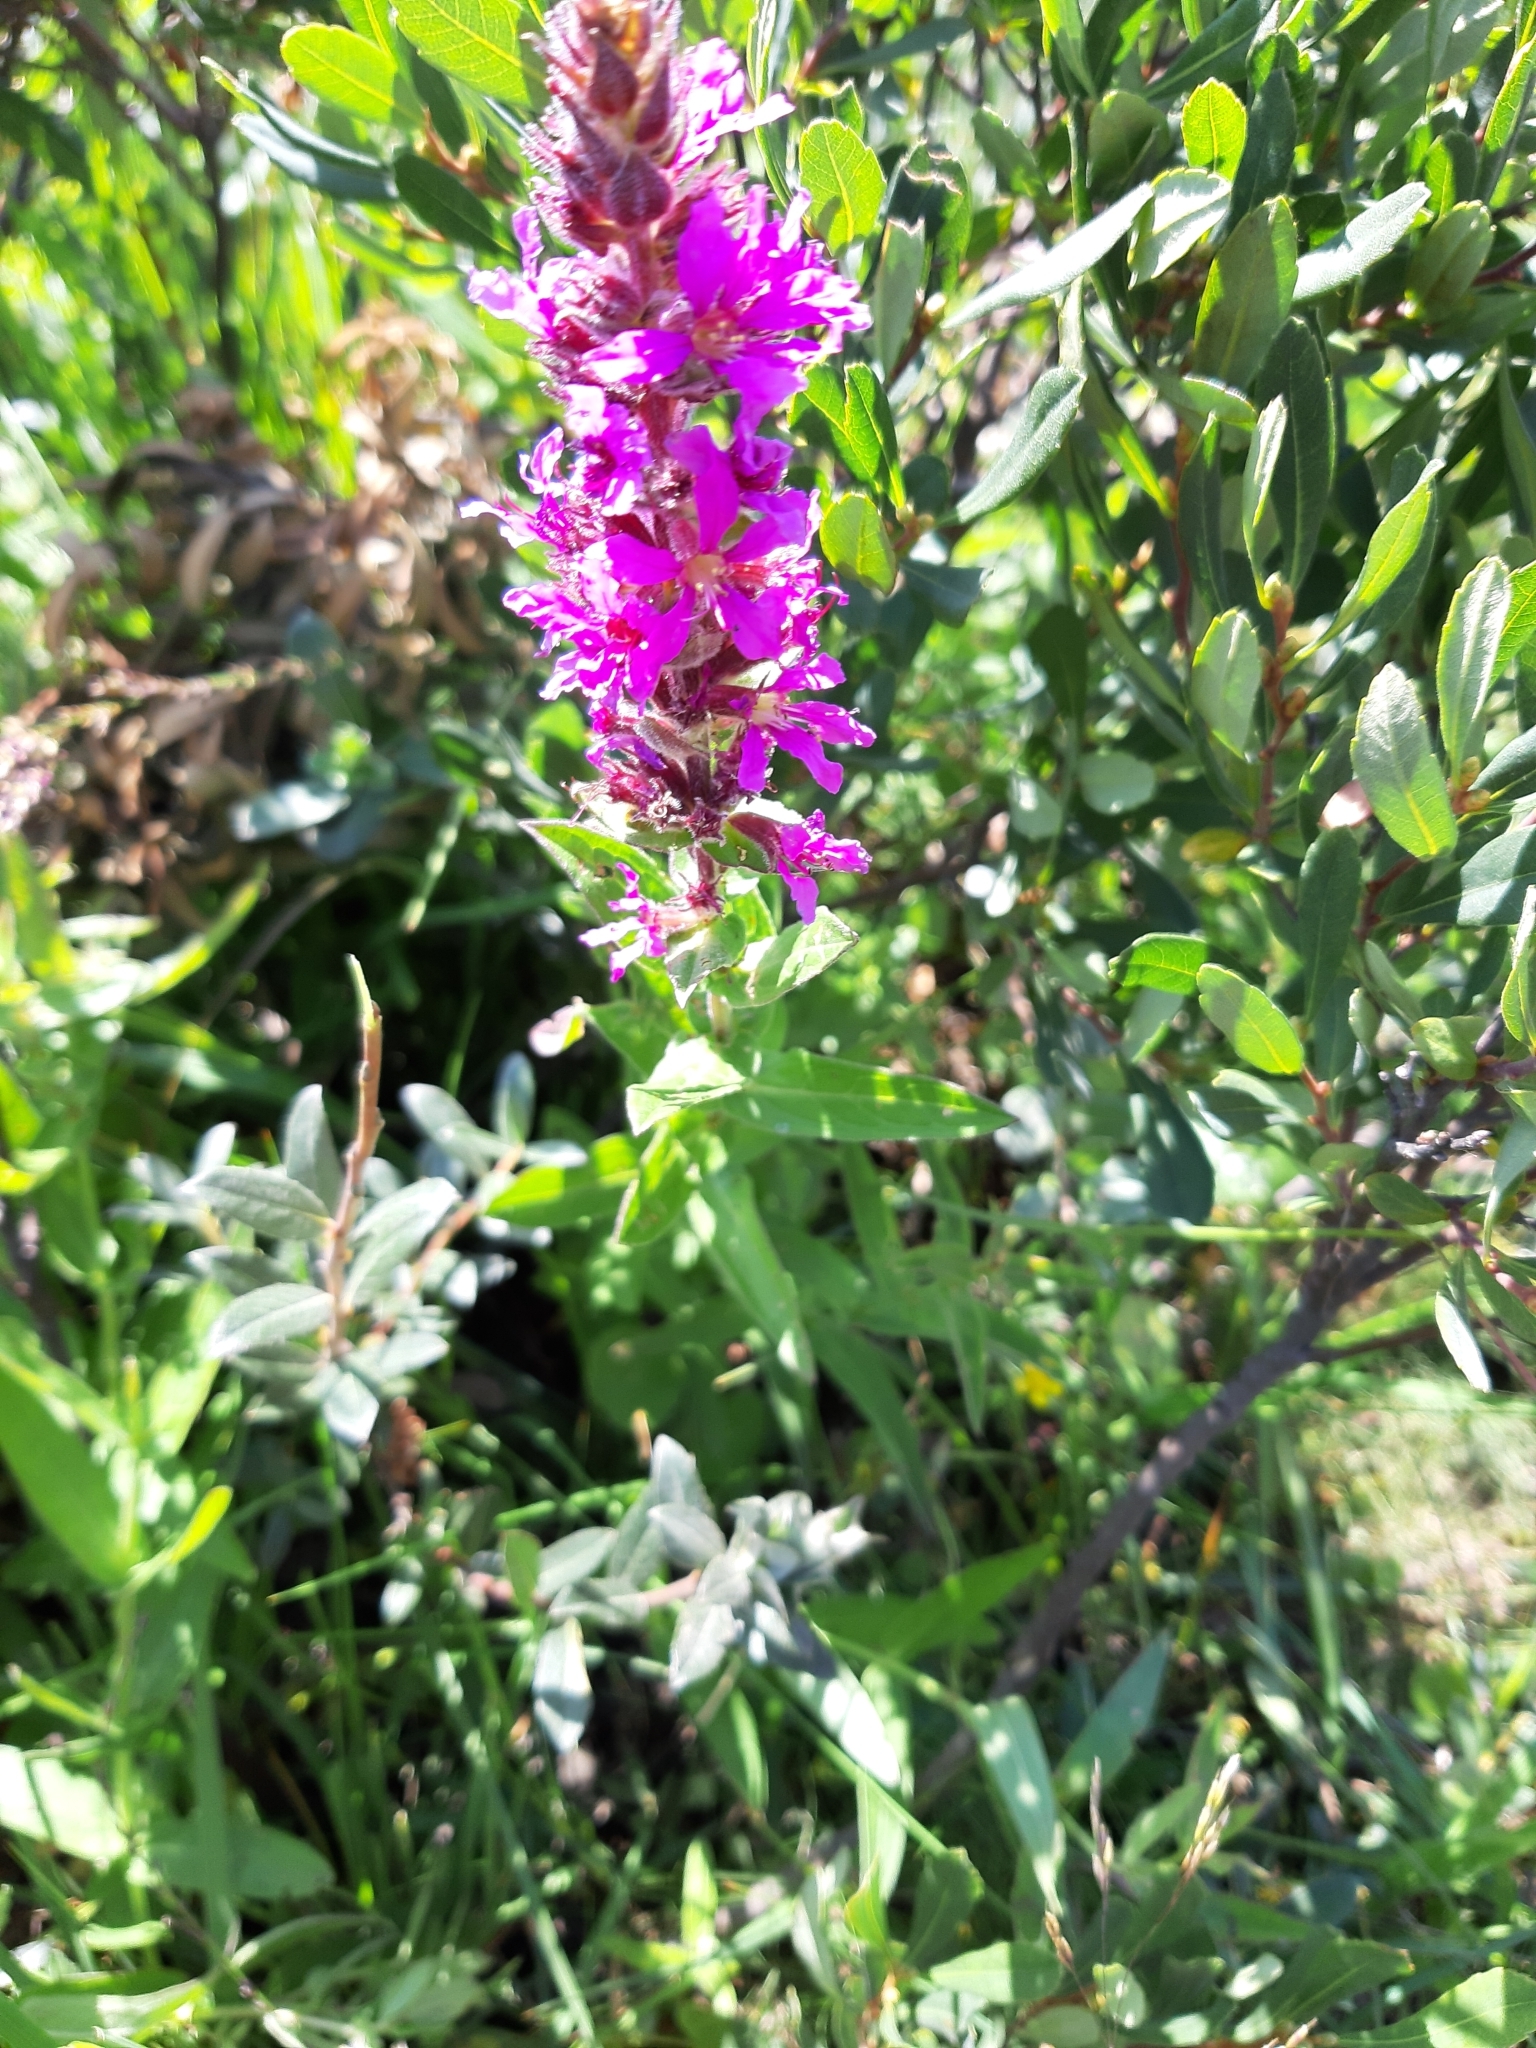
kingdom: Plantae
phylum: Tracheophyta
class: Magnoliopsida
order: Myrtales
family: Lythraceae
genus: Lythrum
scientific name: Lythrum salicaria
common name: Purple loosestrife
